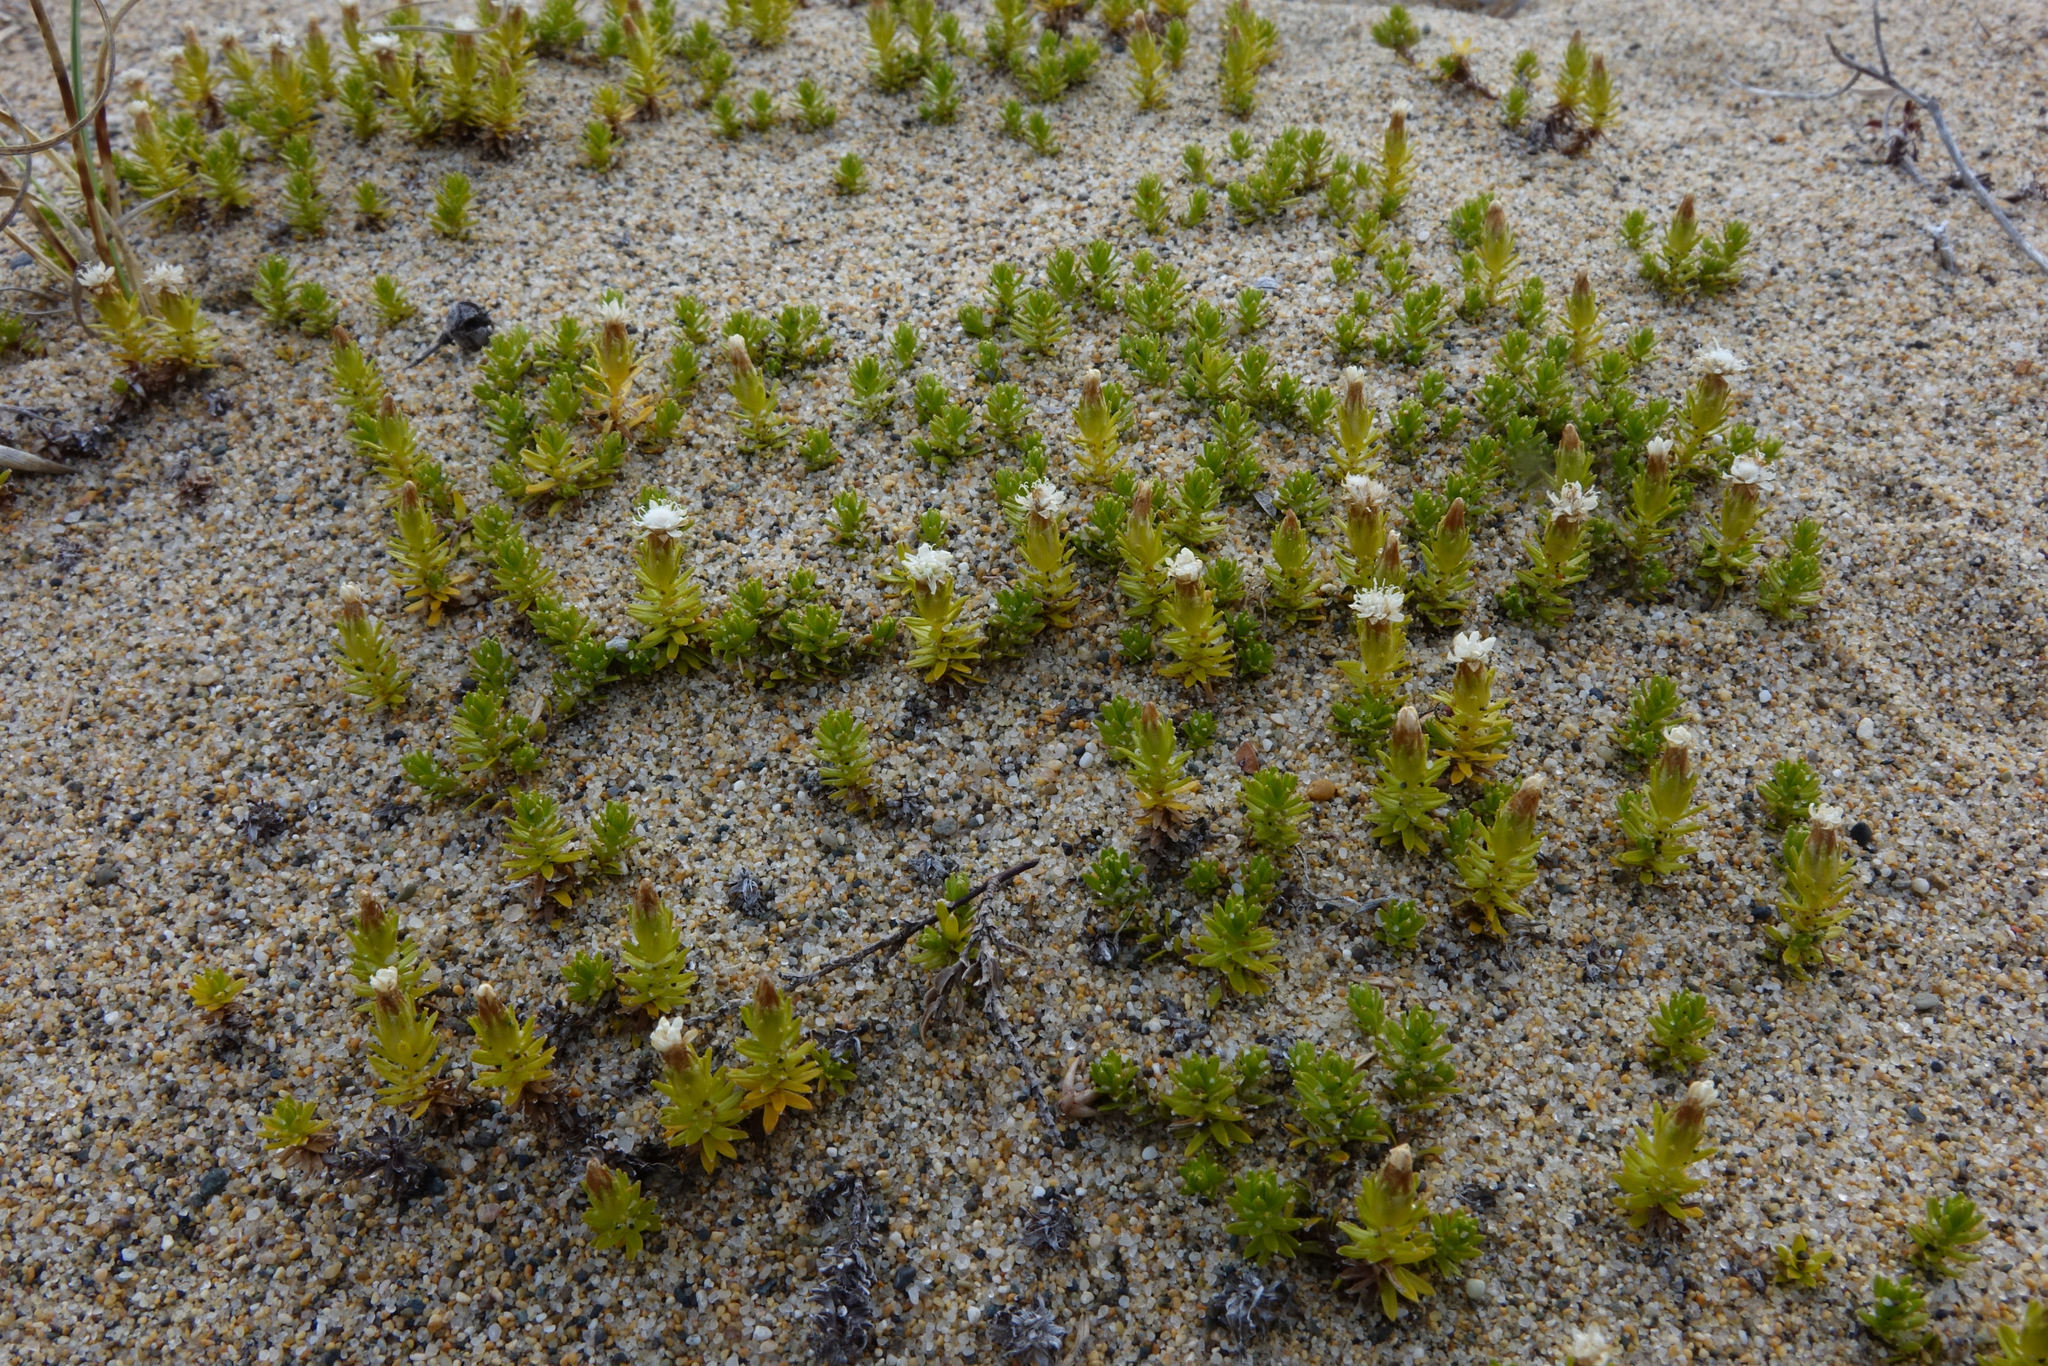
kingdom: Plantae
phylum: Tracheophyta
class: Magnoliopsida
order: Asterales
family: Asteraceae
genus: Raoulia
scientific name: Raoulia glabra
